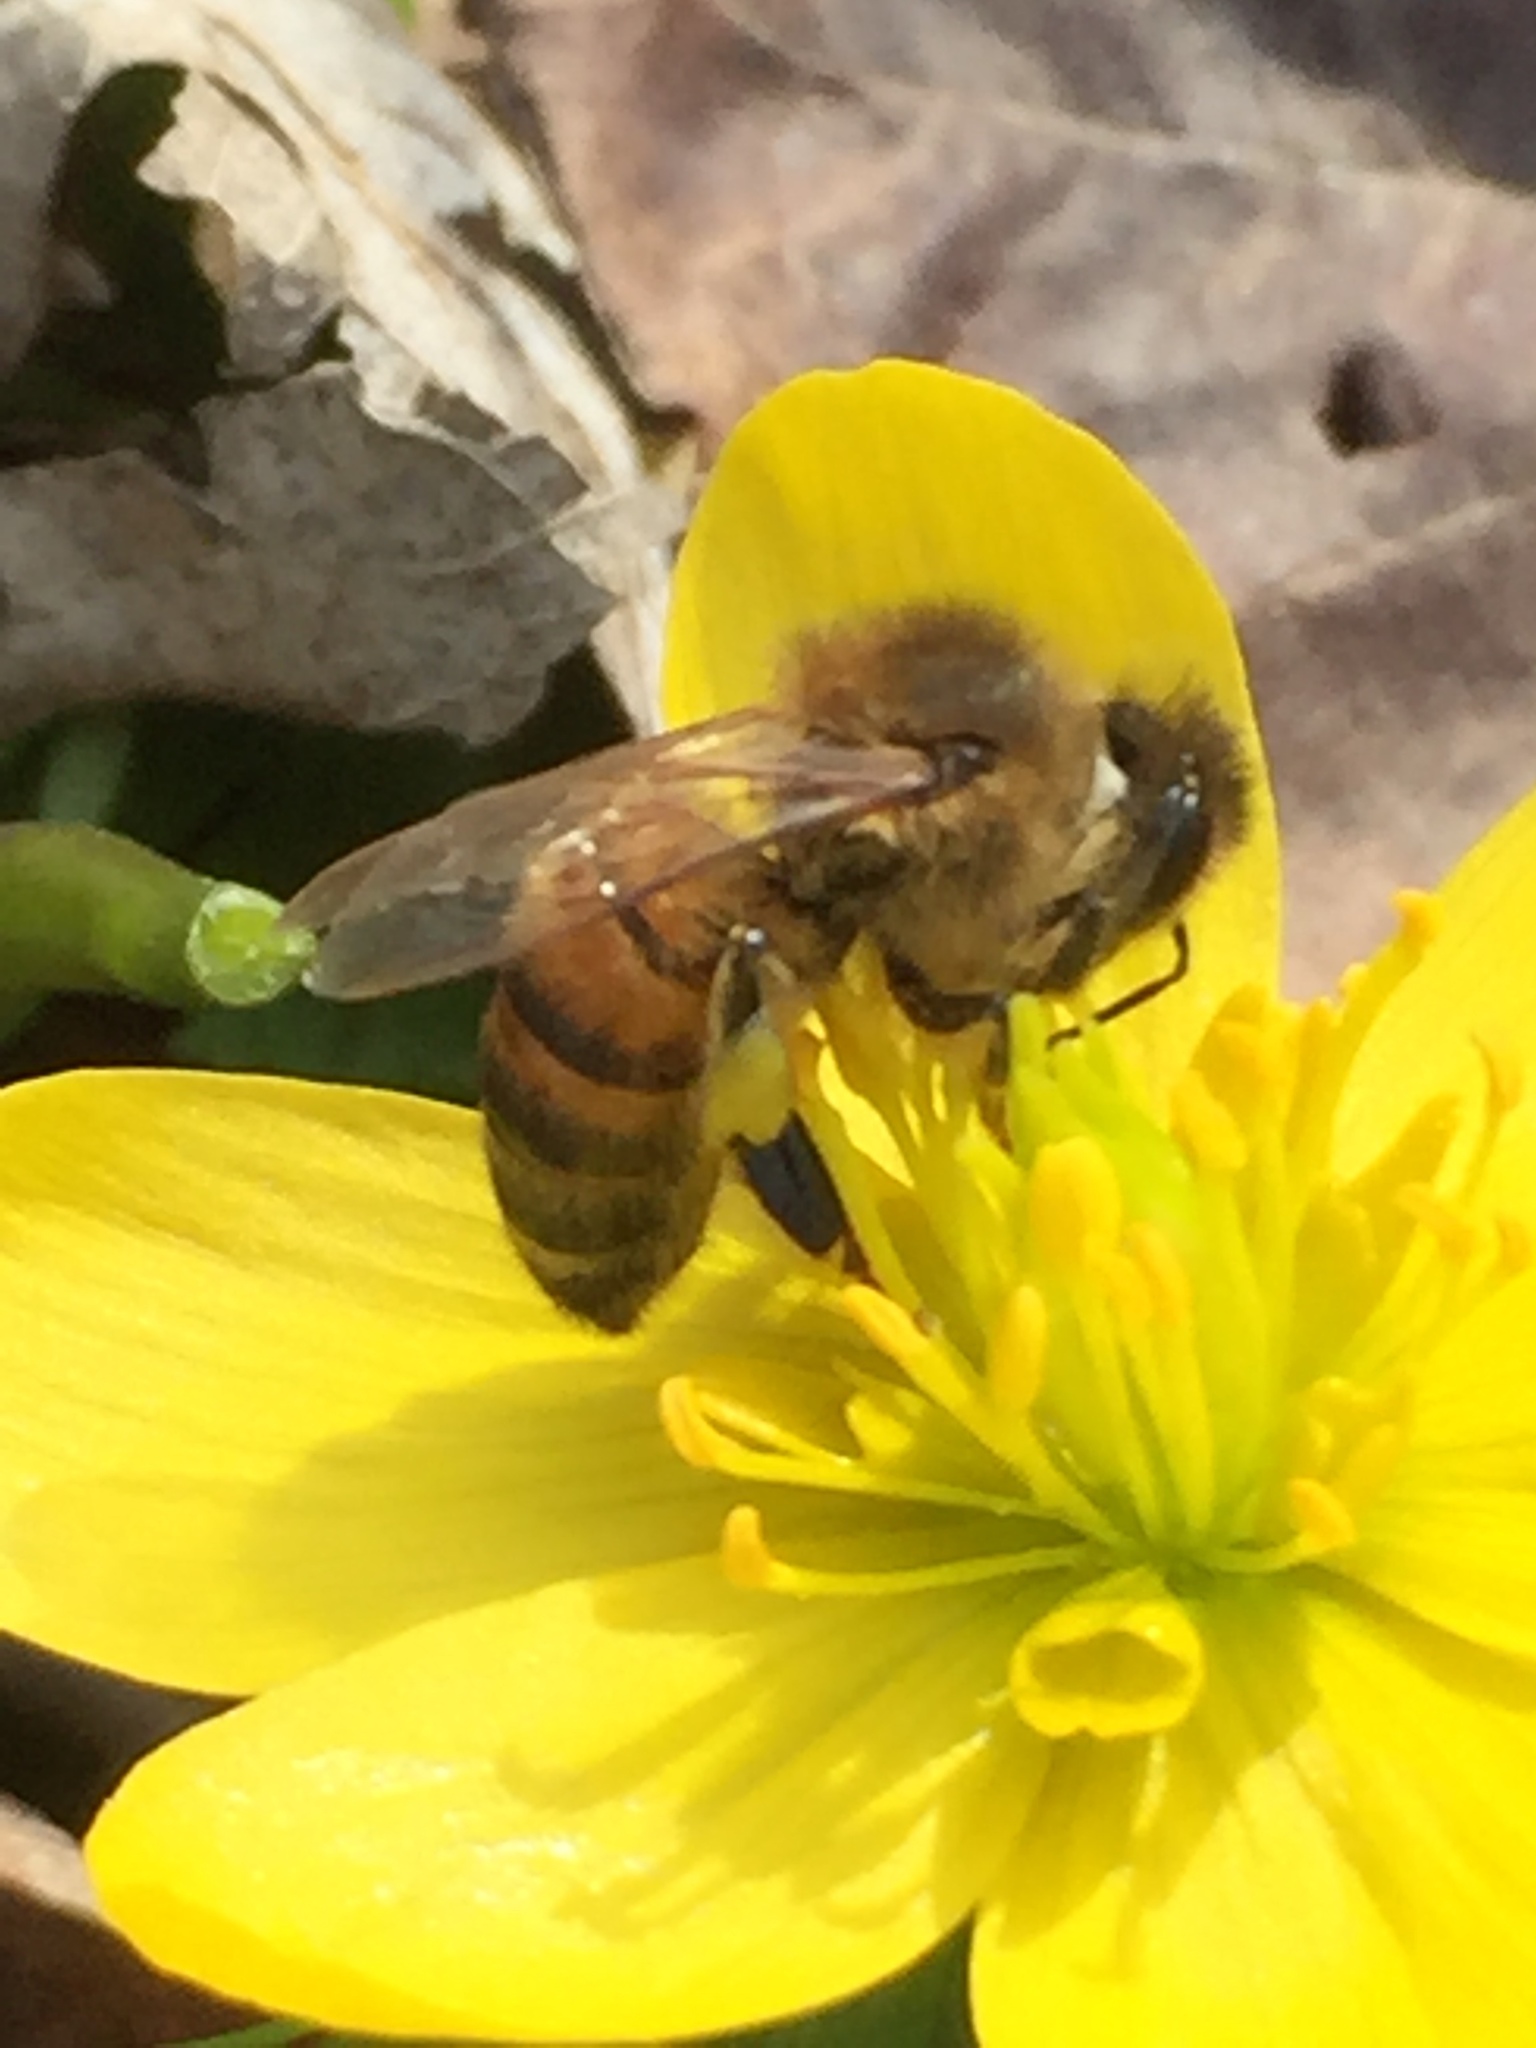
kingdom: Animalia
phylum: Arthropoda
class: Insecta
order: Hymenoptera
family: Apidae
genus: Apis
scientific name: Apis mellifera
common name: Honey bee
